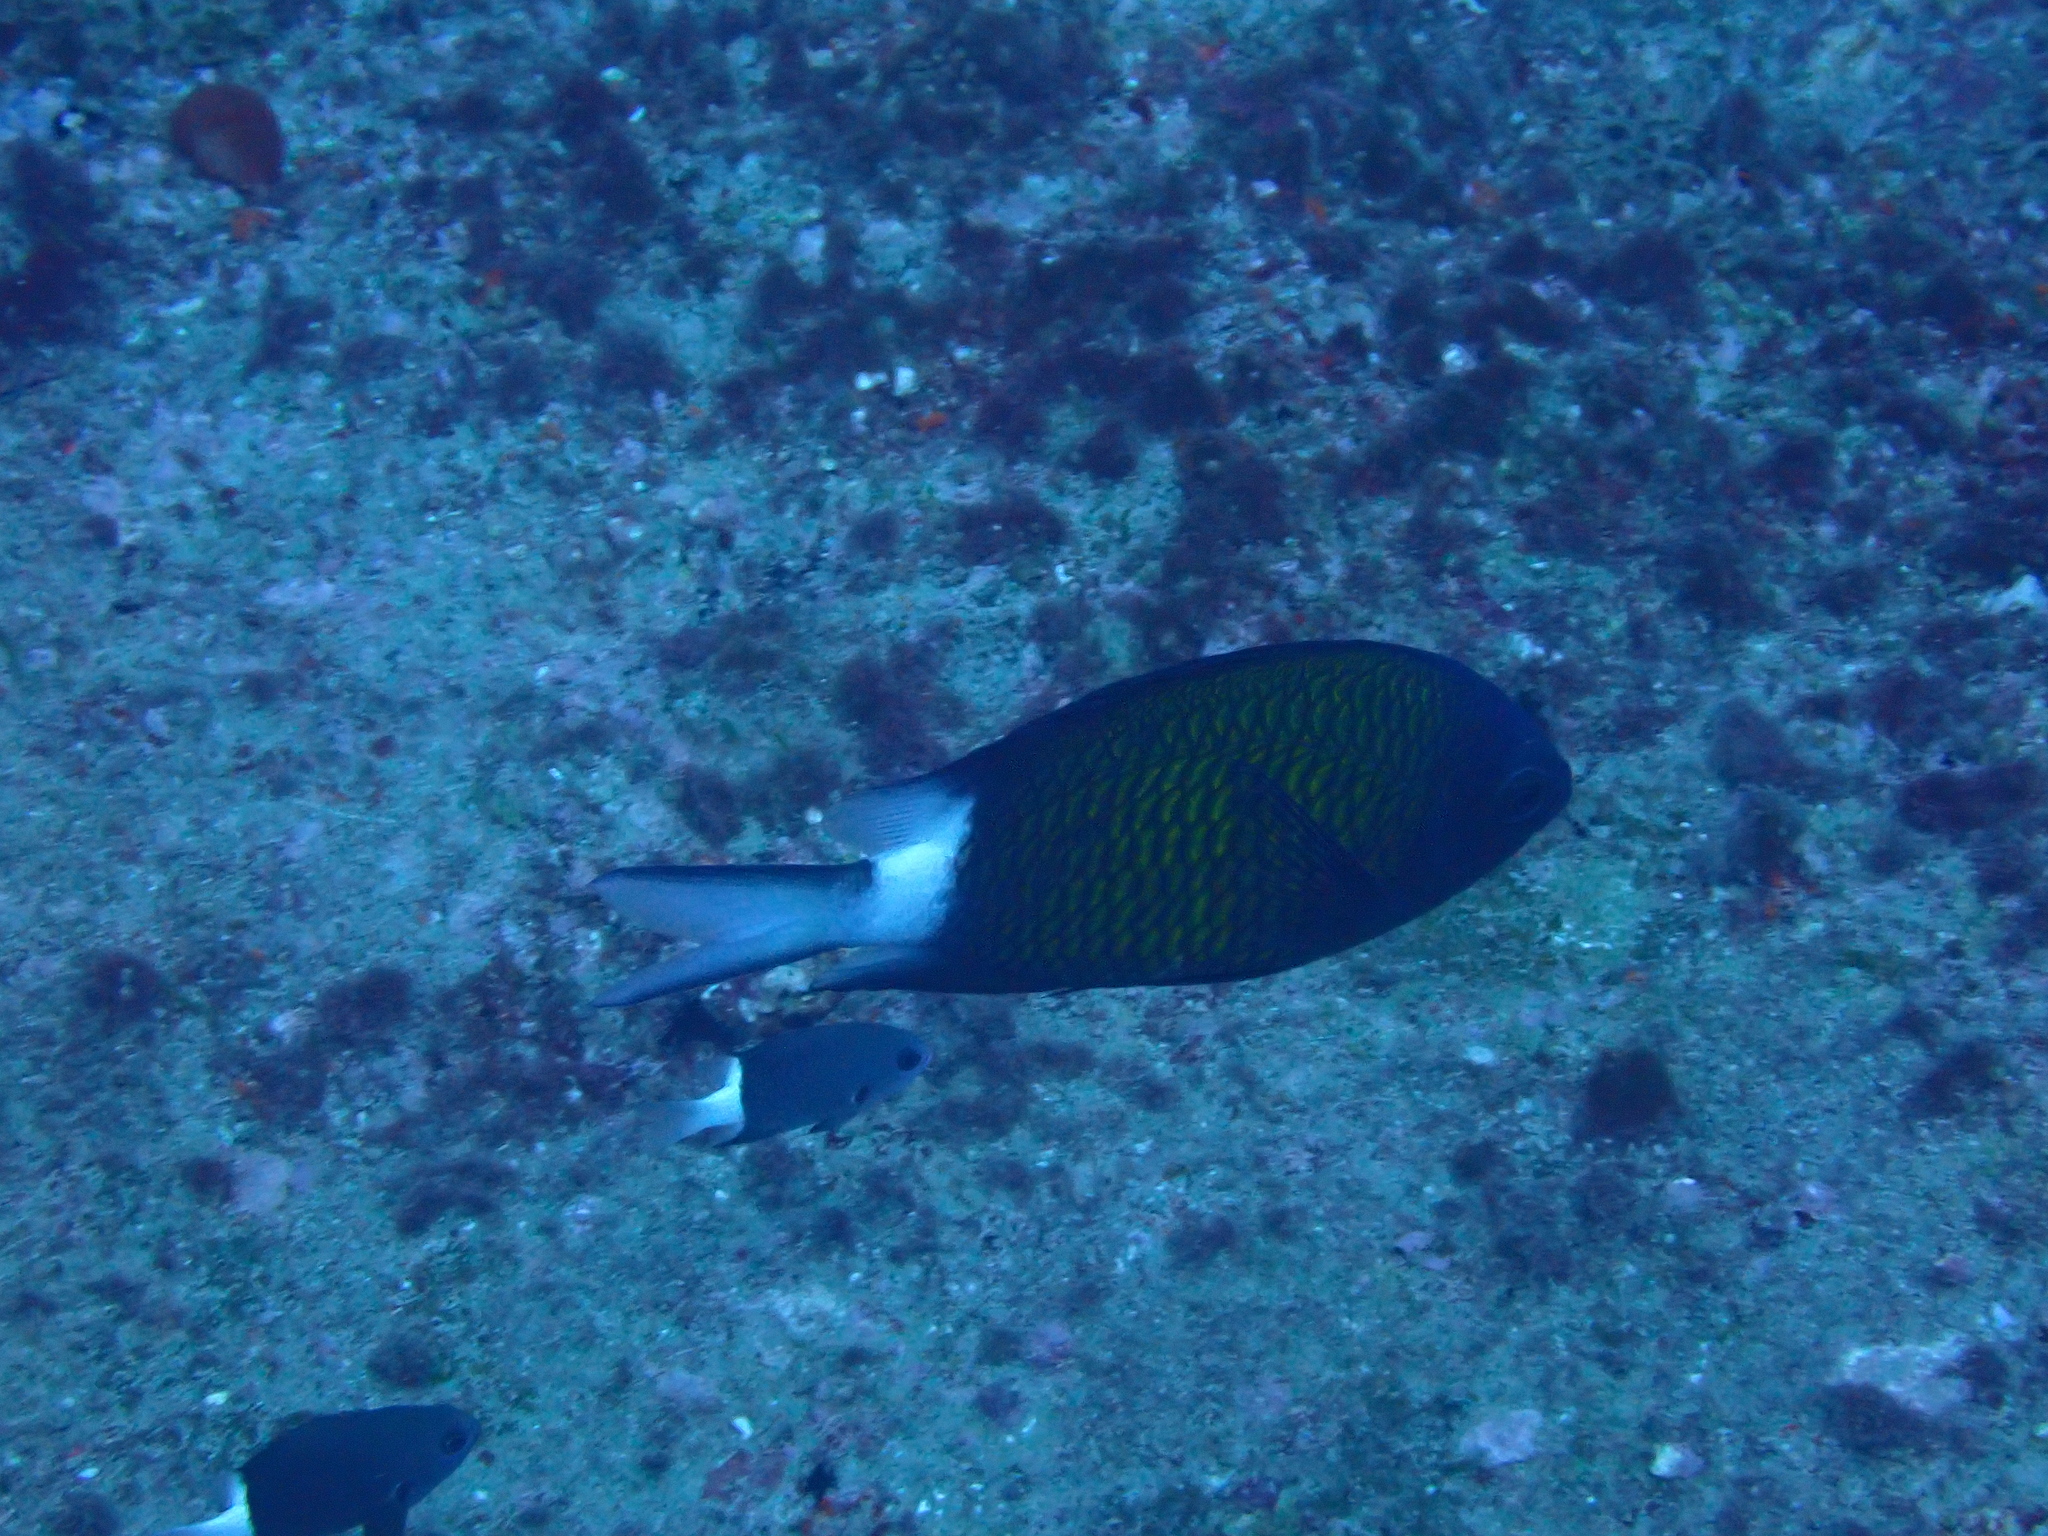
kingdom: Animalia
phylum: Chordata
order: Perciformes
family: Pomacentridae
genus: Chromis
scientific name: Chromis chrysura
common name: Stout-body chromis
